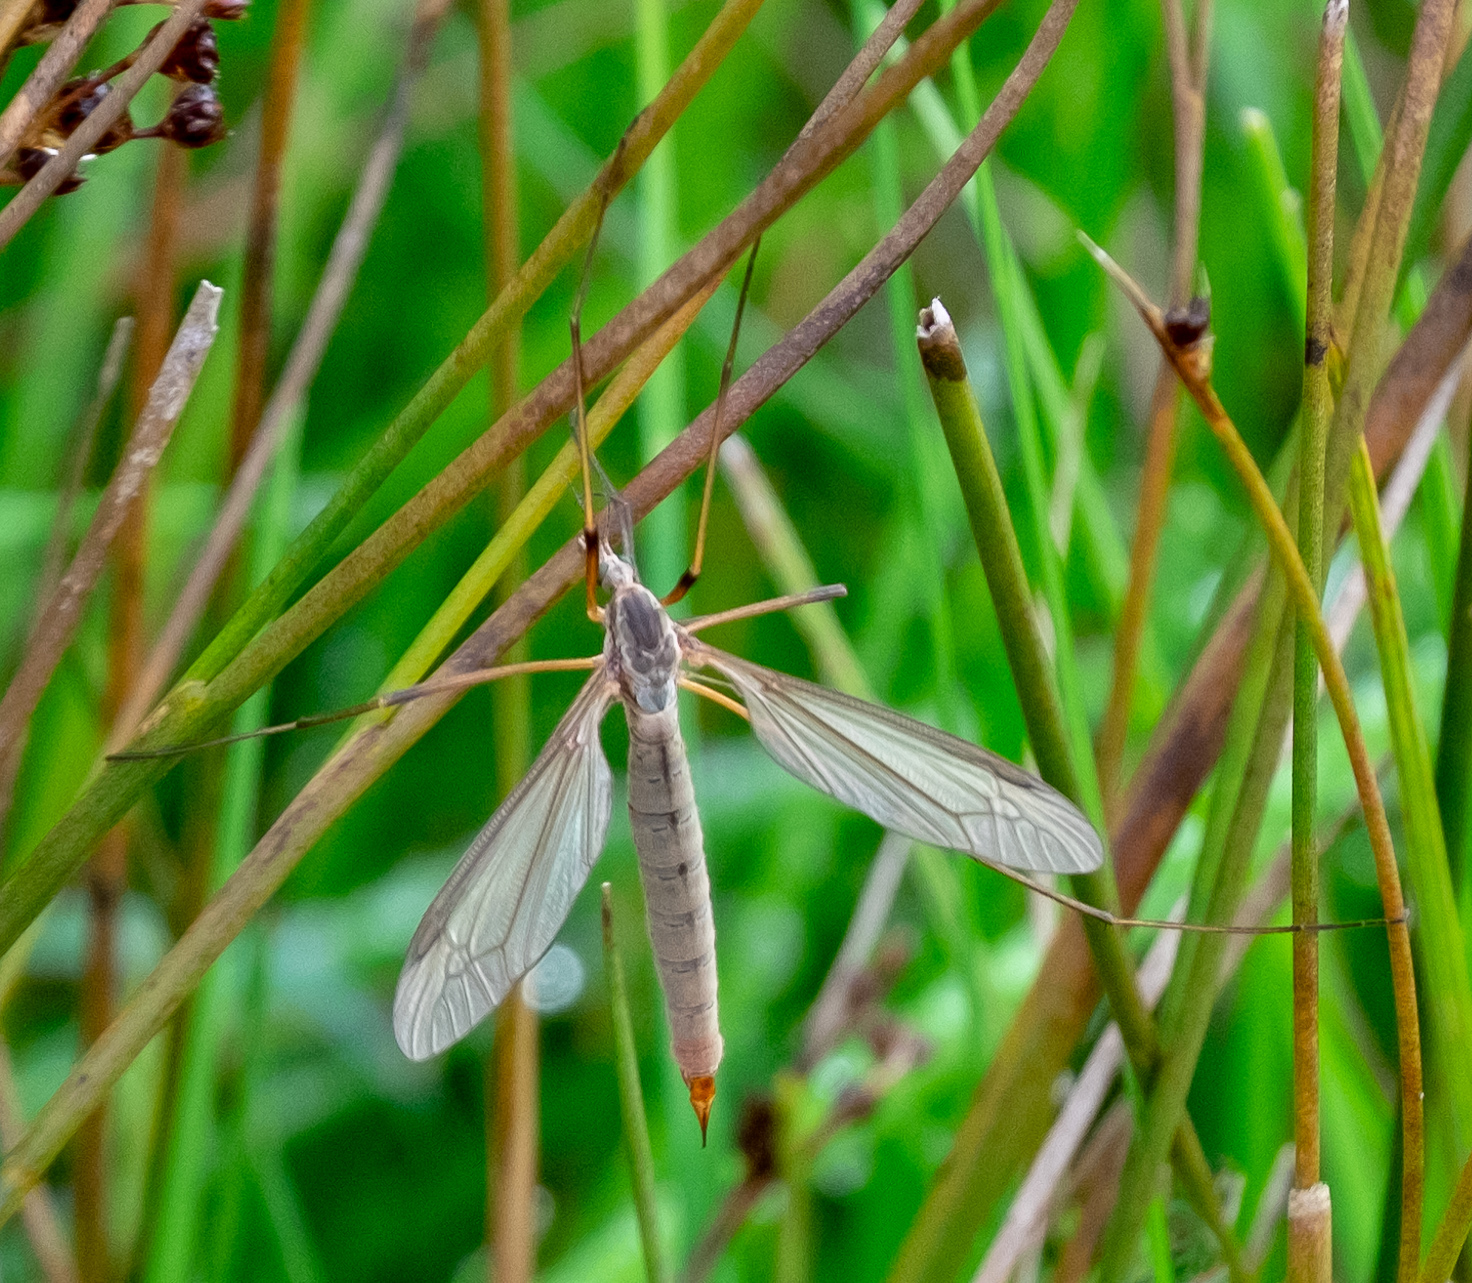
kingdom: Animalia
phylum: Arthropoda
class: Insecta
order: Diptera
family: Tipulidae
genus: Tipula
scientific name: Tipula paludosa
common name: European cranefly
